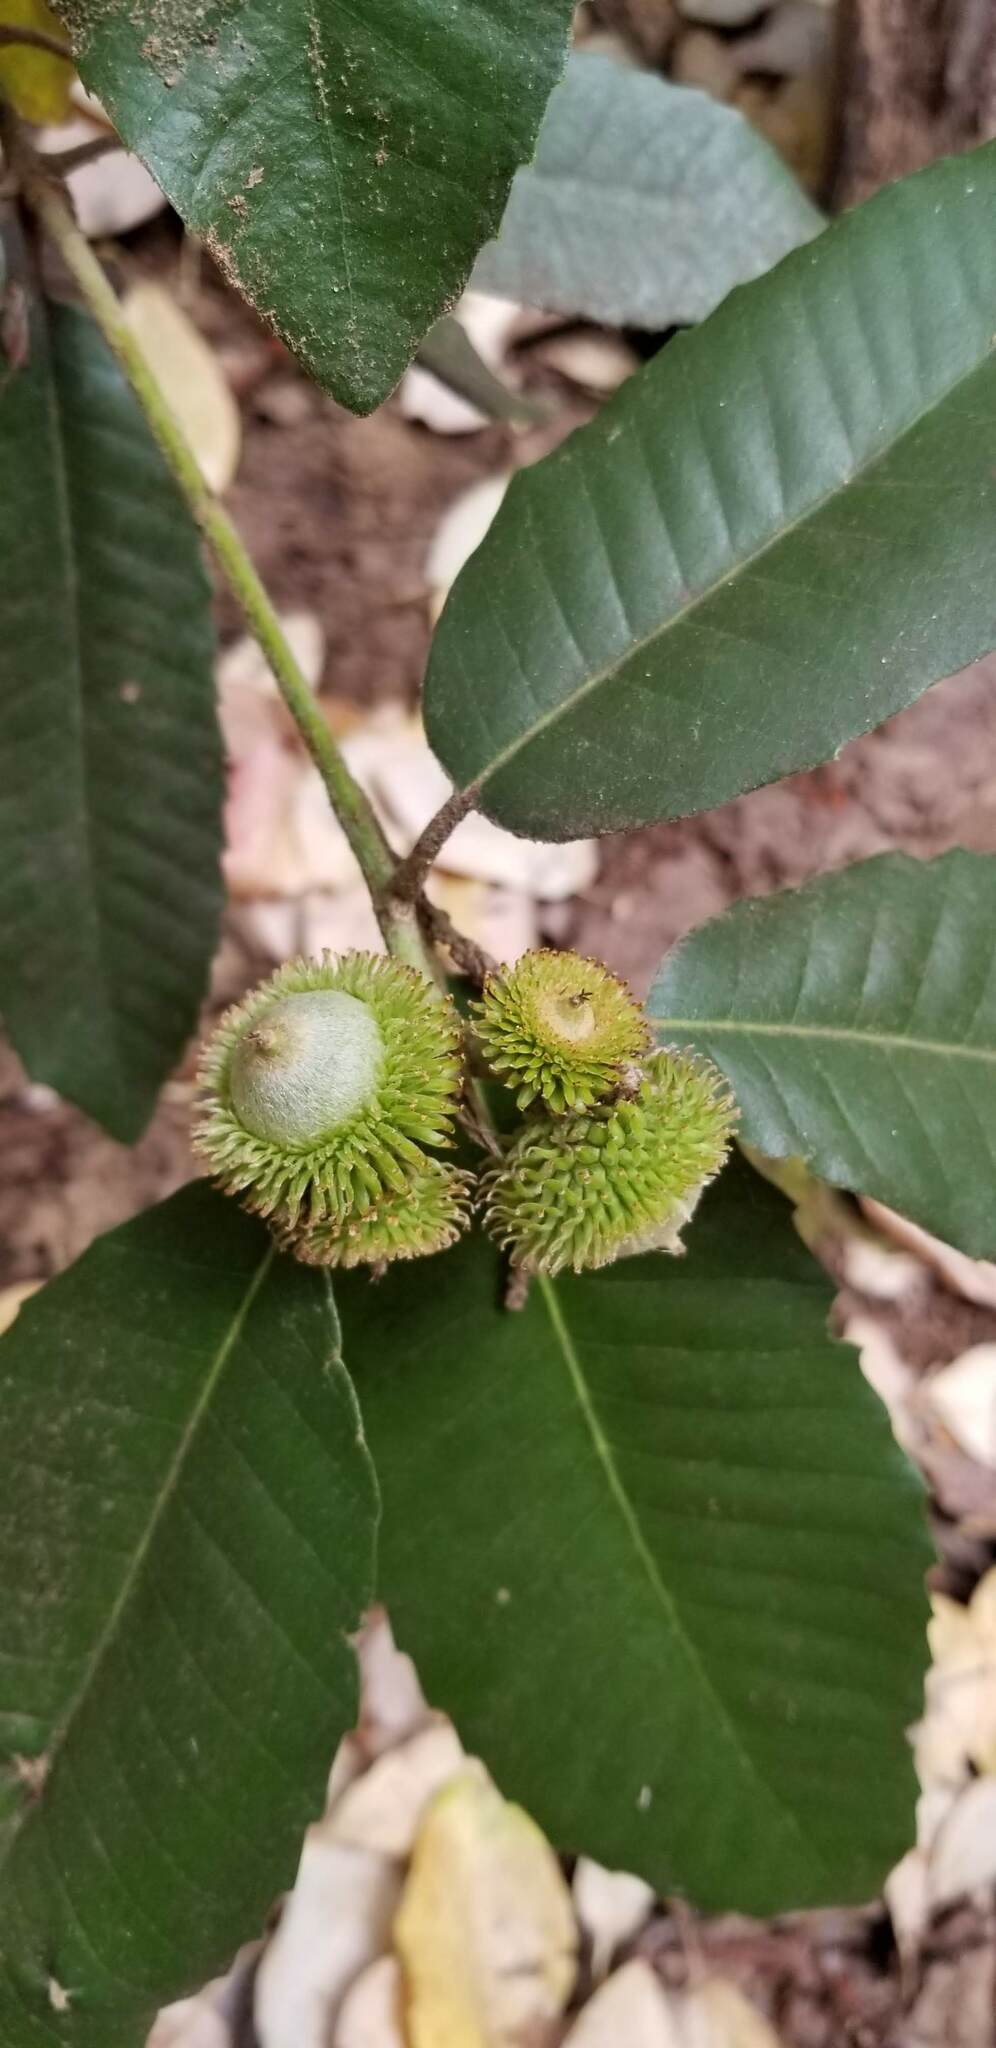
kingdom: Plantae
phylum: Tracheophyta
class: Magnoliopsida
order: Fagales
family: Fagaceae
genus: Notholithocarpus
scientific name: Notholithocarpus densiflorus
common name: Tan bark oak
